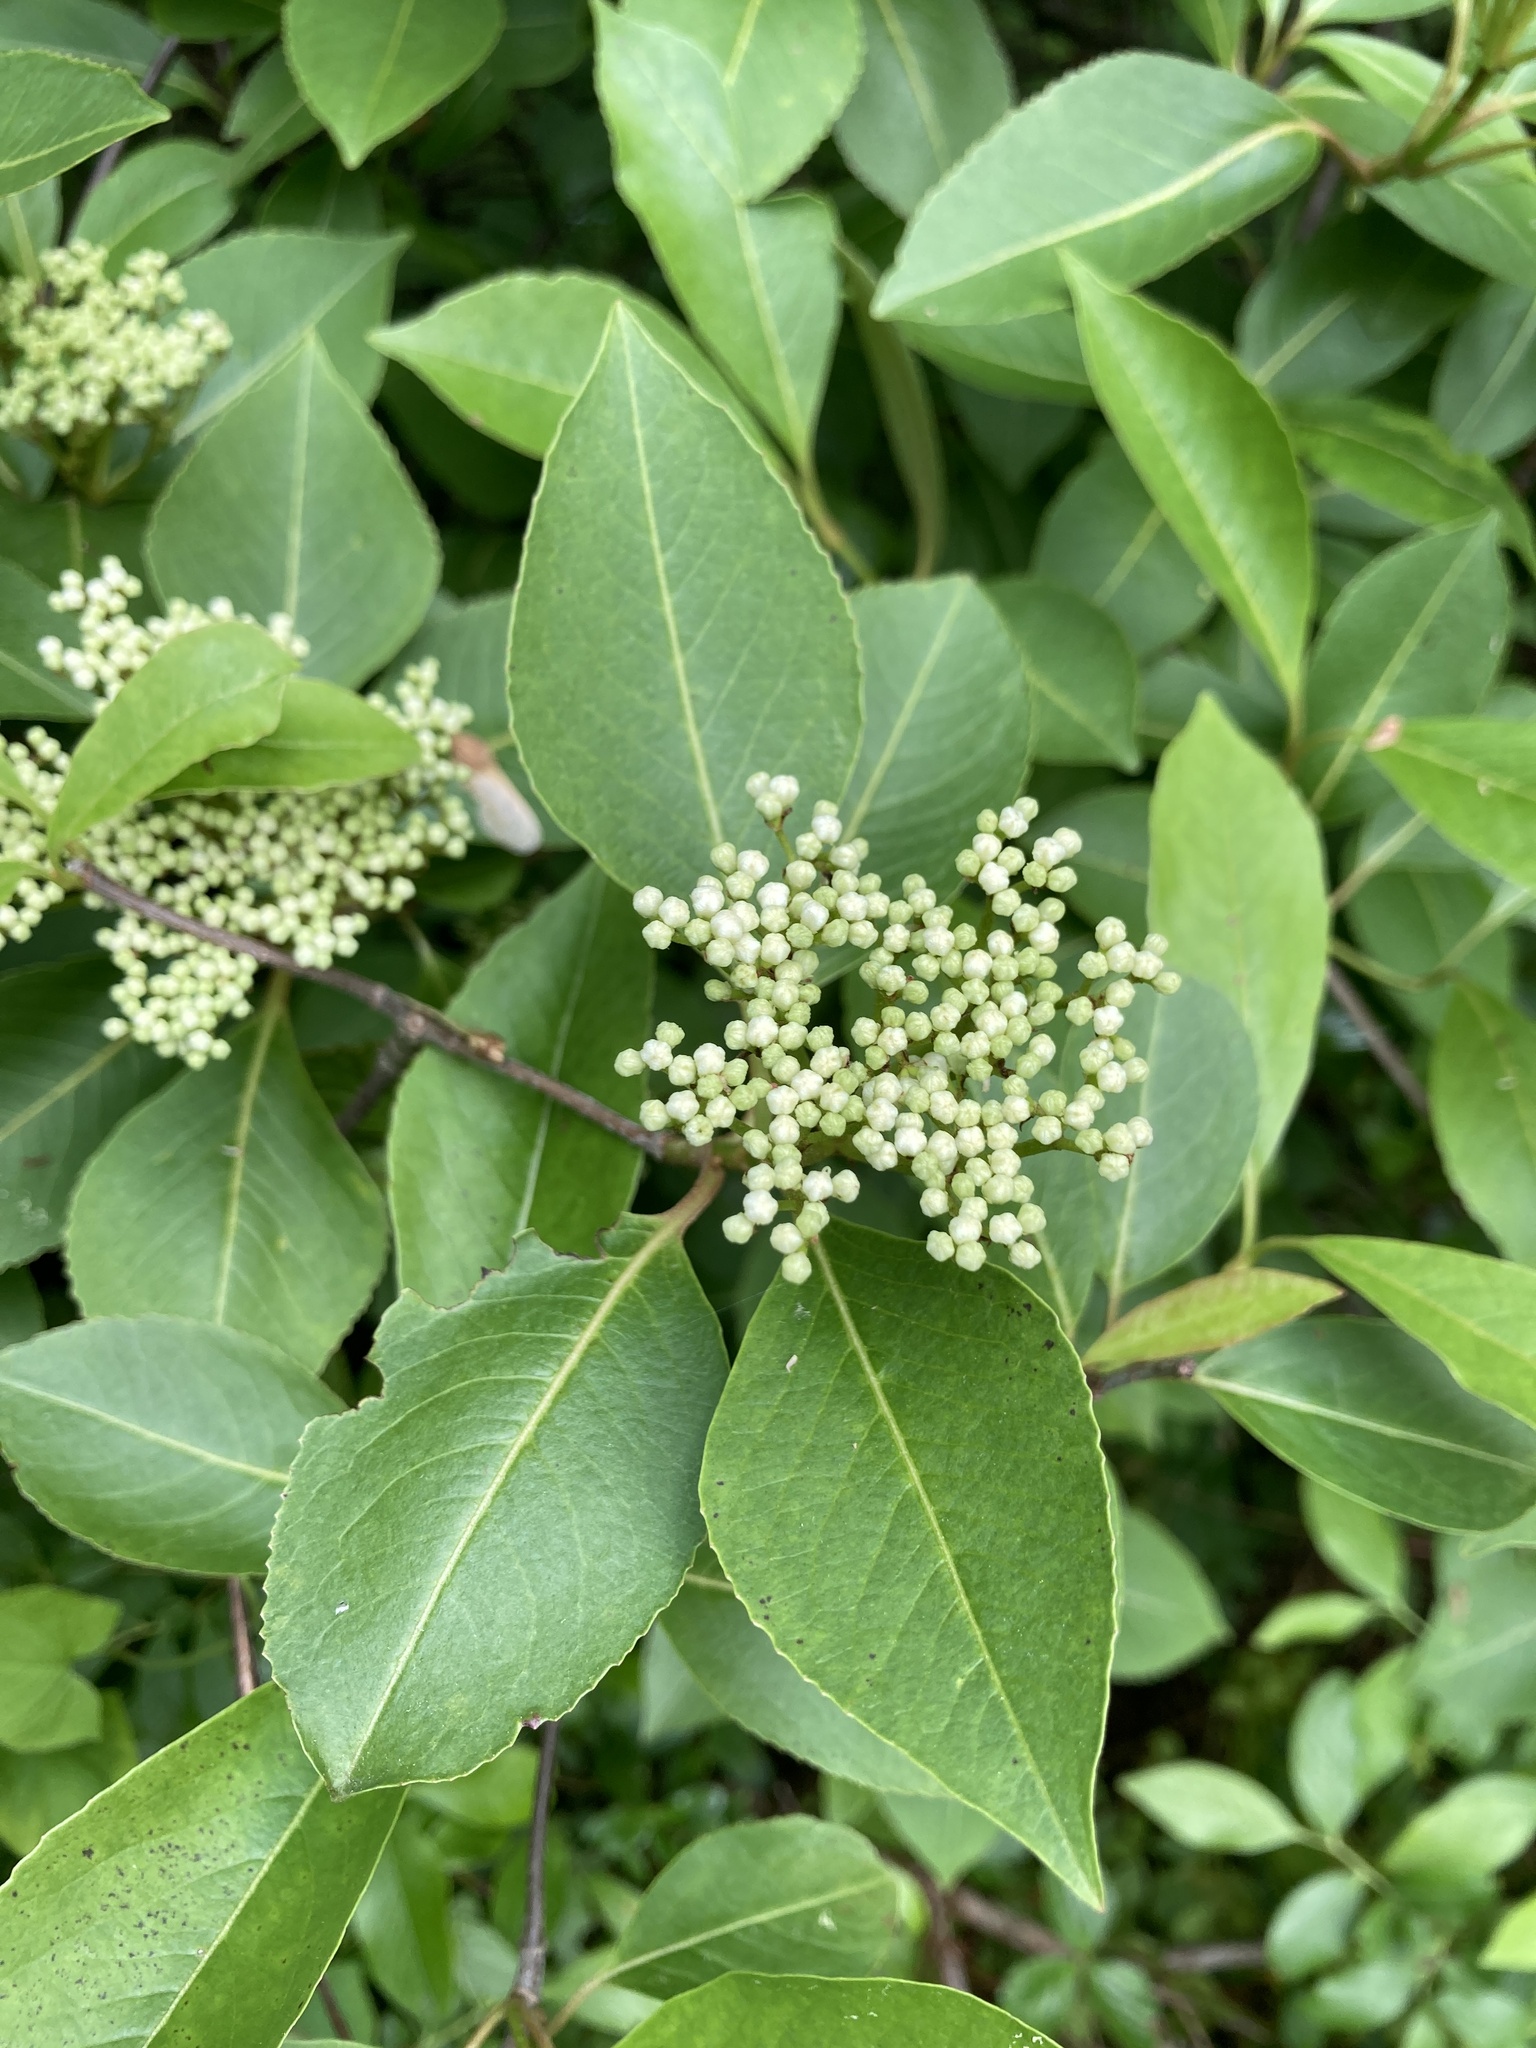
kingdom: Plantae
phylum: Tracheophyta
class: Magnoliopsida
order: Dipsacales
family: Viburnaceae
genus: Viburnum
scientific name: Viburnum cassinoides
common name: Swamp haw
